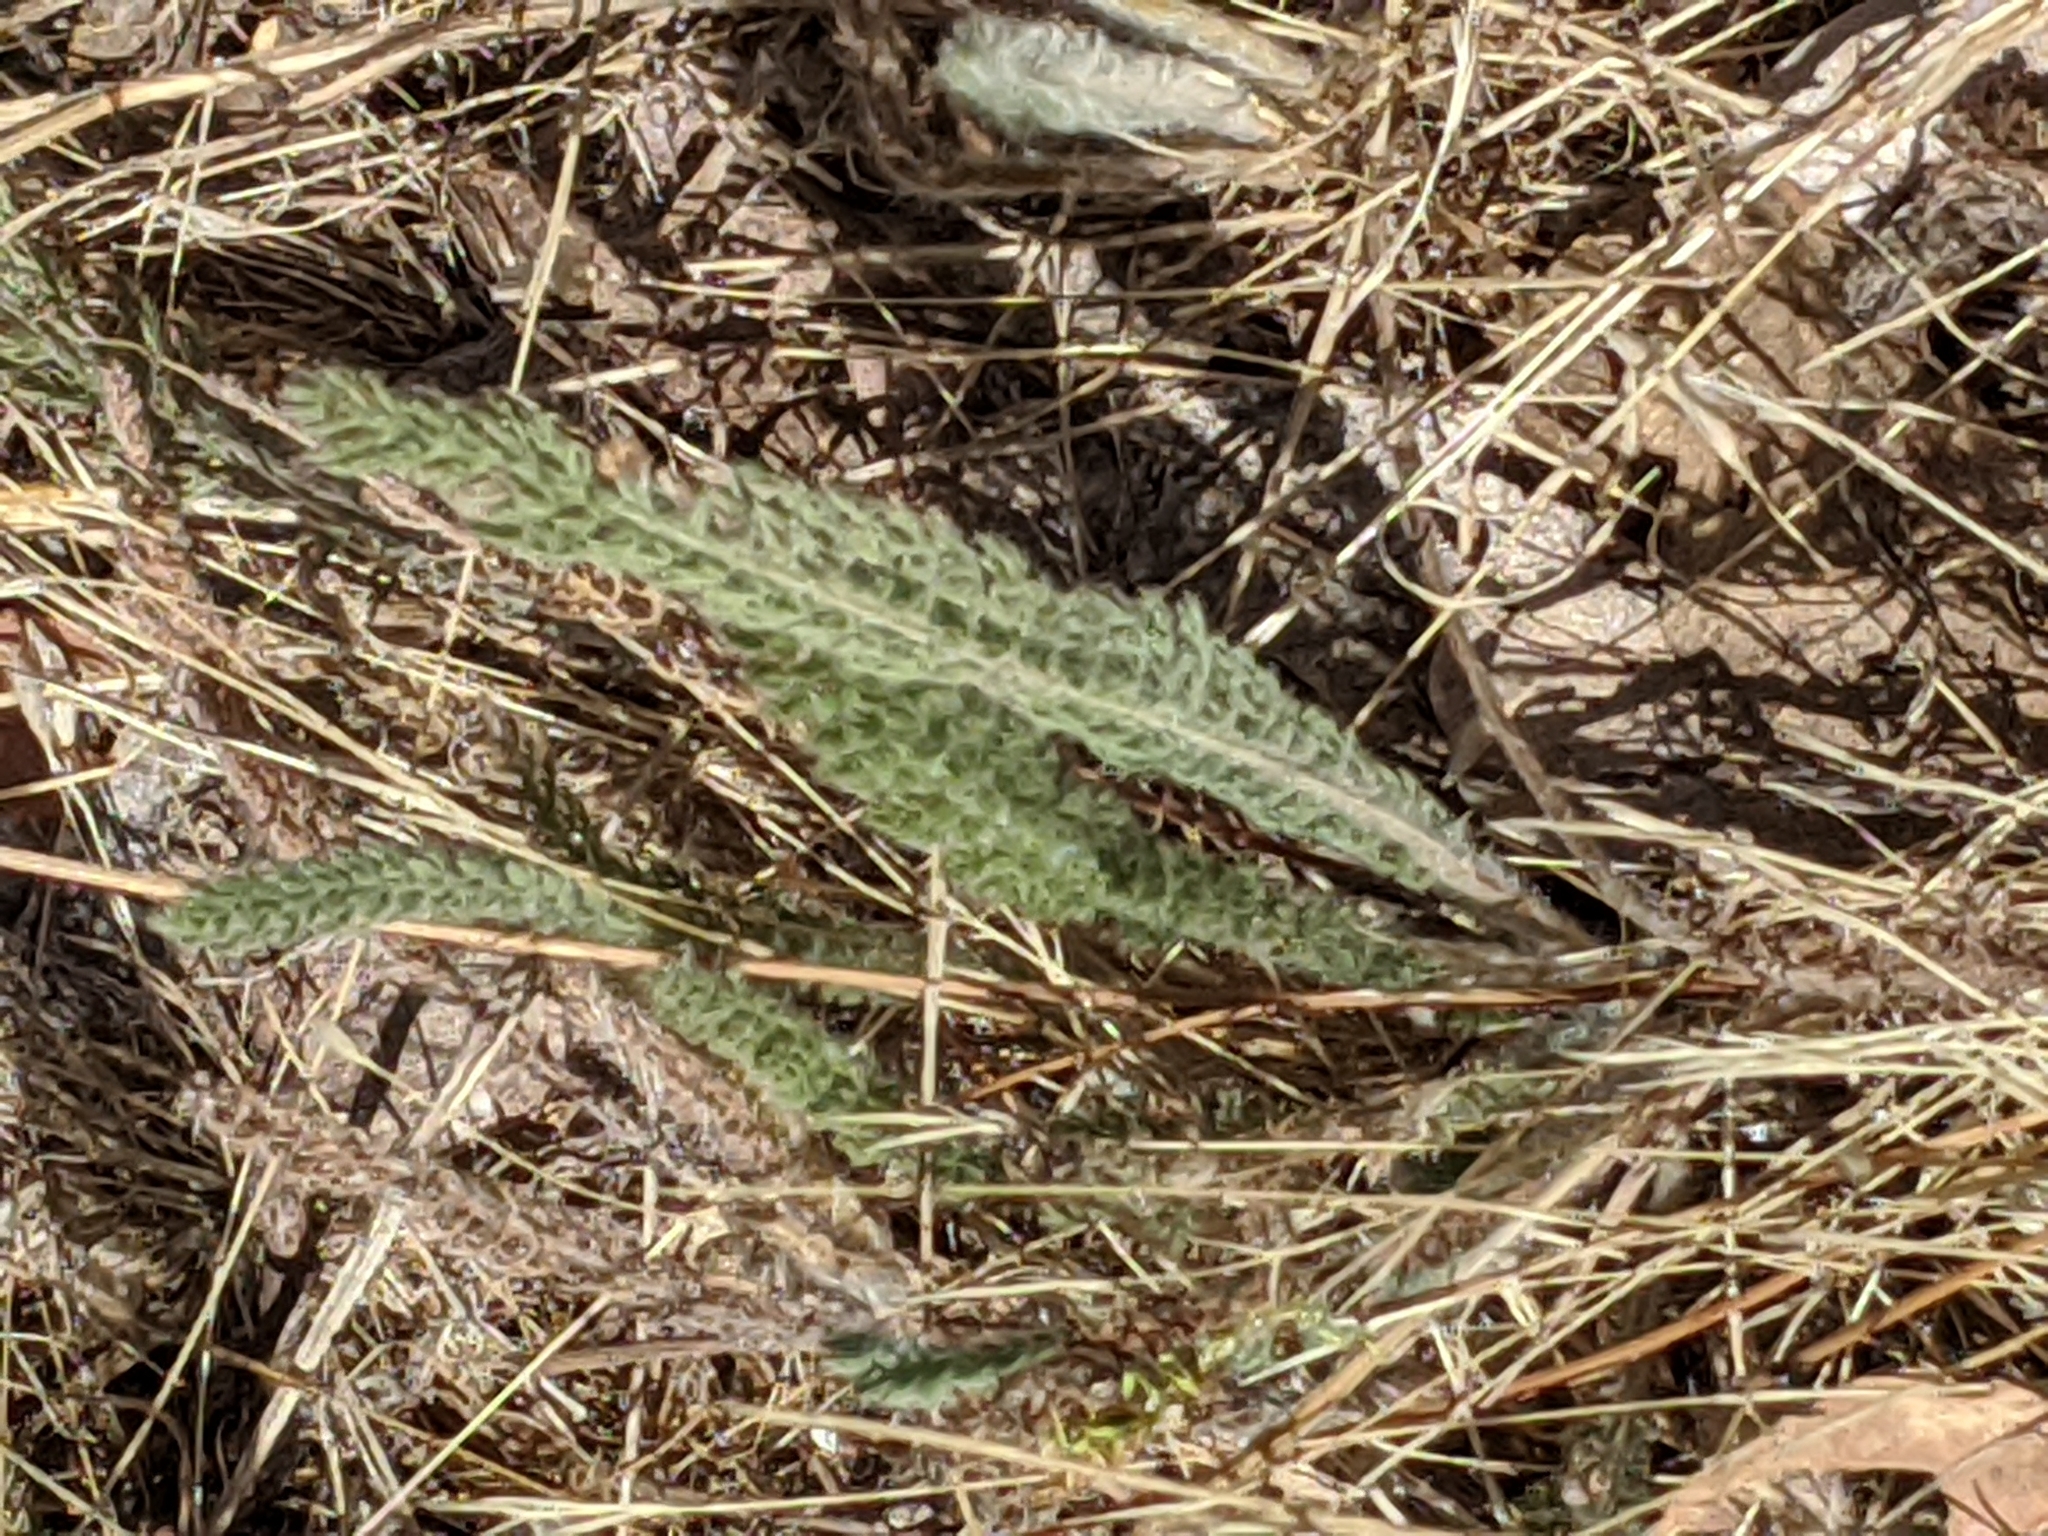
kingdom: Plantae
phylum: Tracheophyta
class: Magnoliopsida
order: Asterales
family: Asteraceae
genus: Achillea
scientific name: Achillea millefolium
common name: Yarrow
